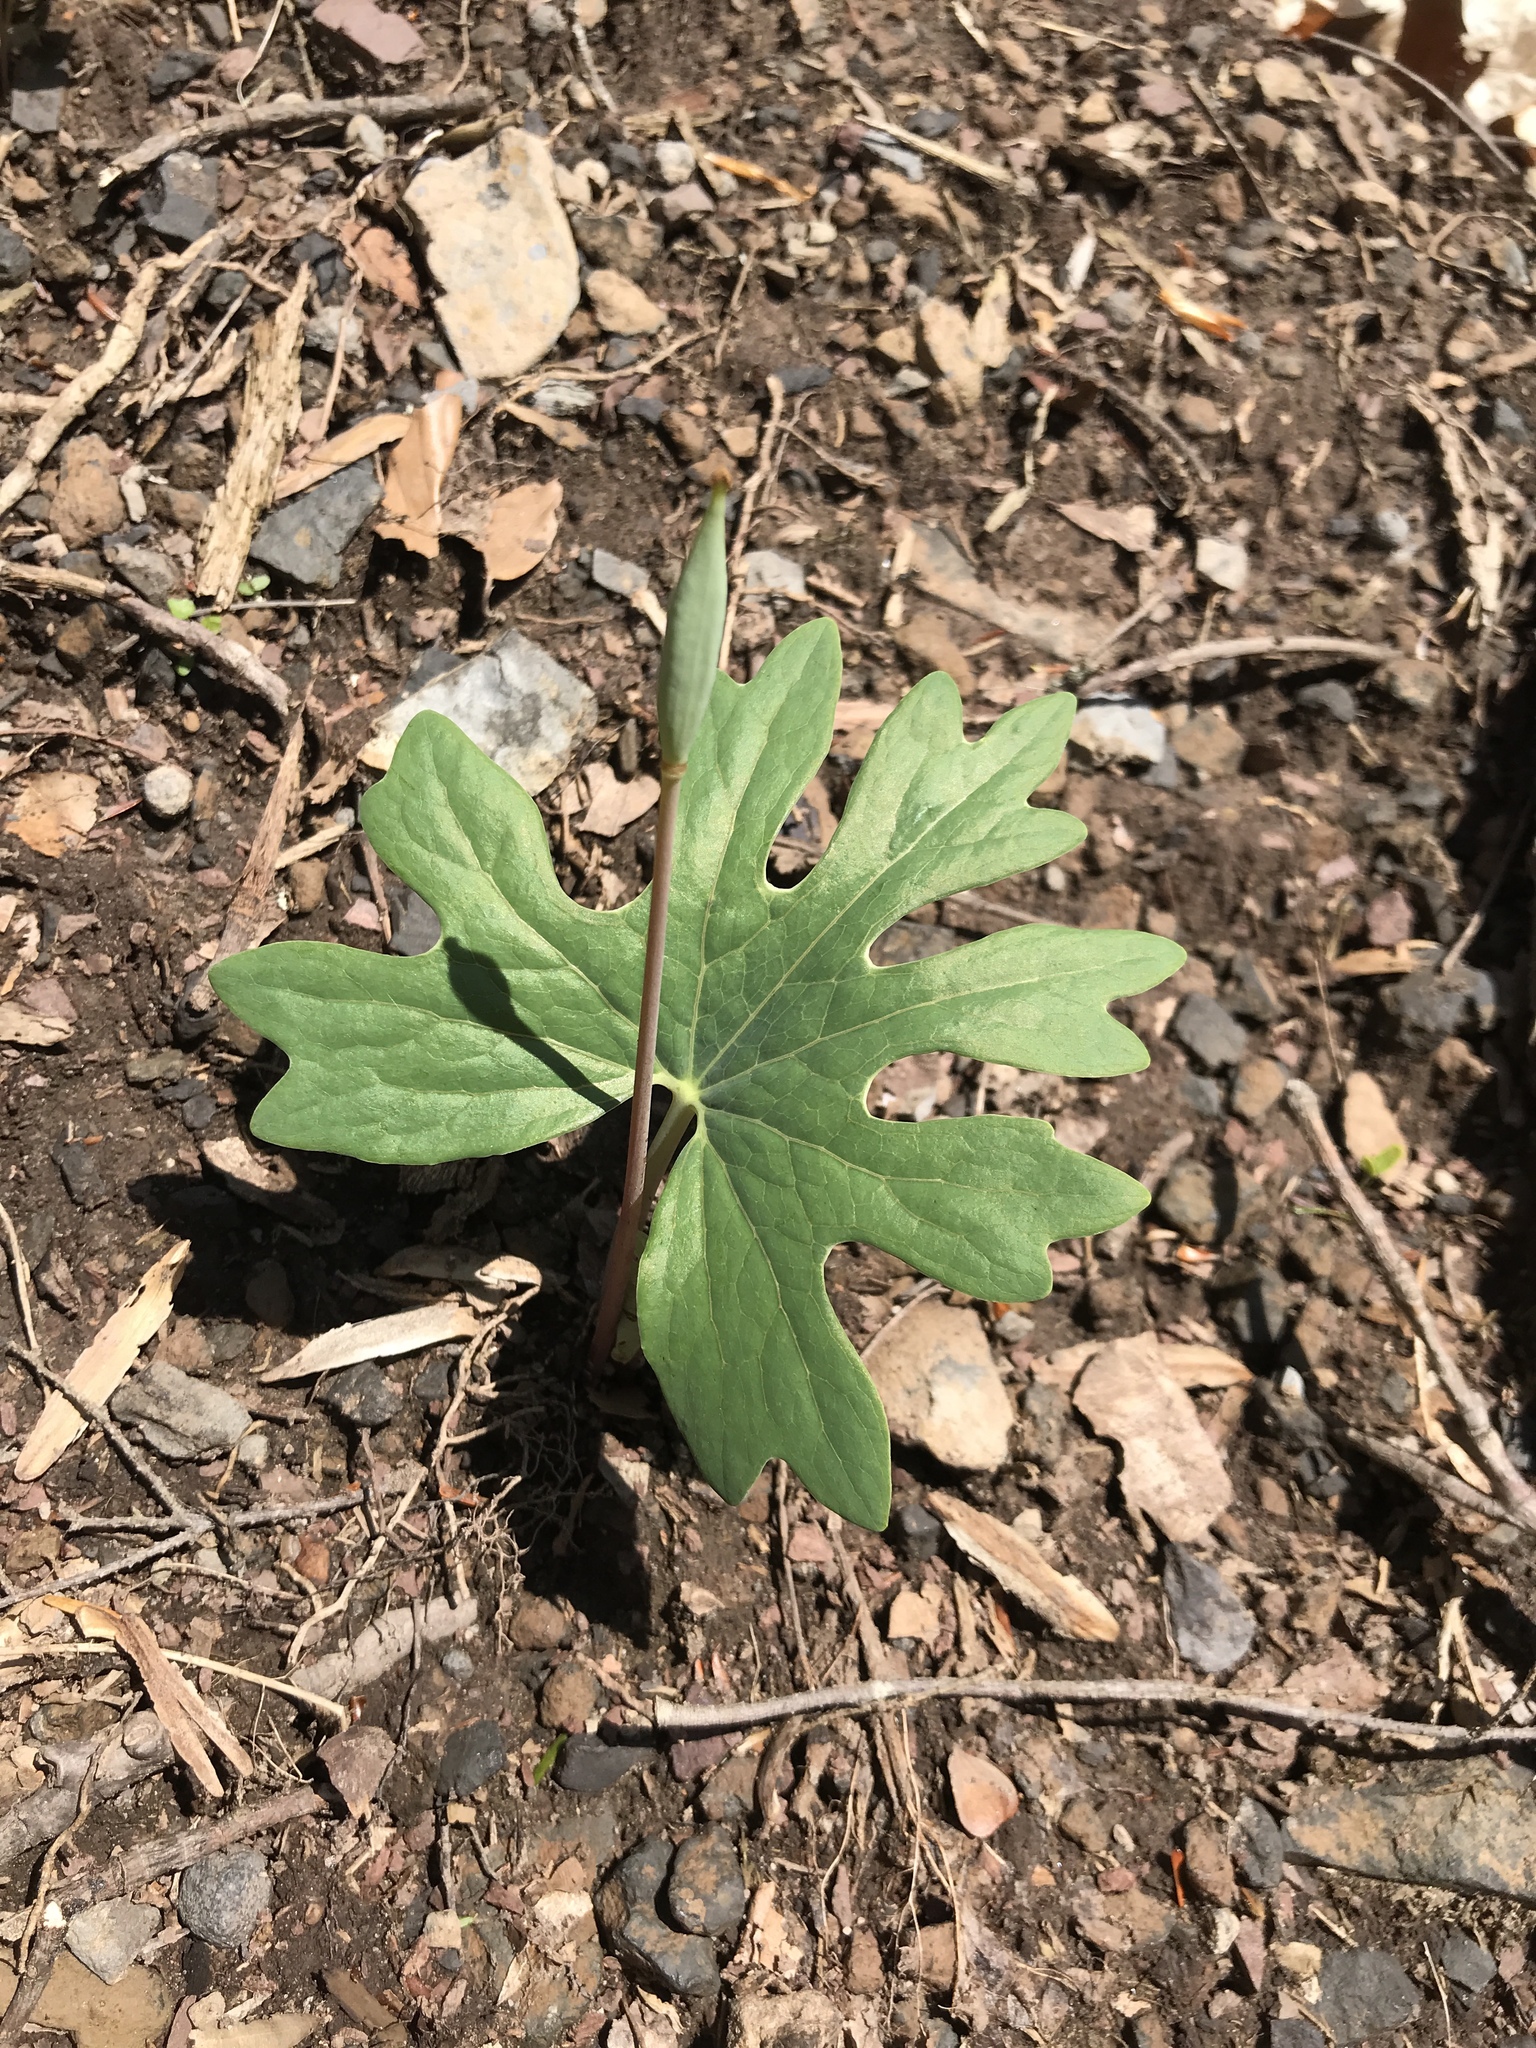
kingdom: Plantae
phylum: Tracheophyta
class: Magnoliopsida
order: Ranunculales
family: Papaveraceae
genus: Sanguinaria
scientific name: Sanguinaria canadensis
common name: Bloodroot
